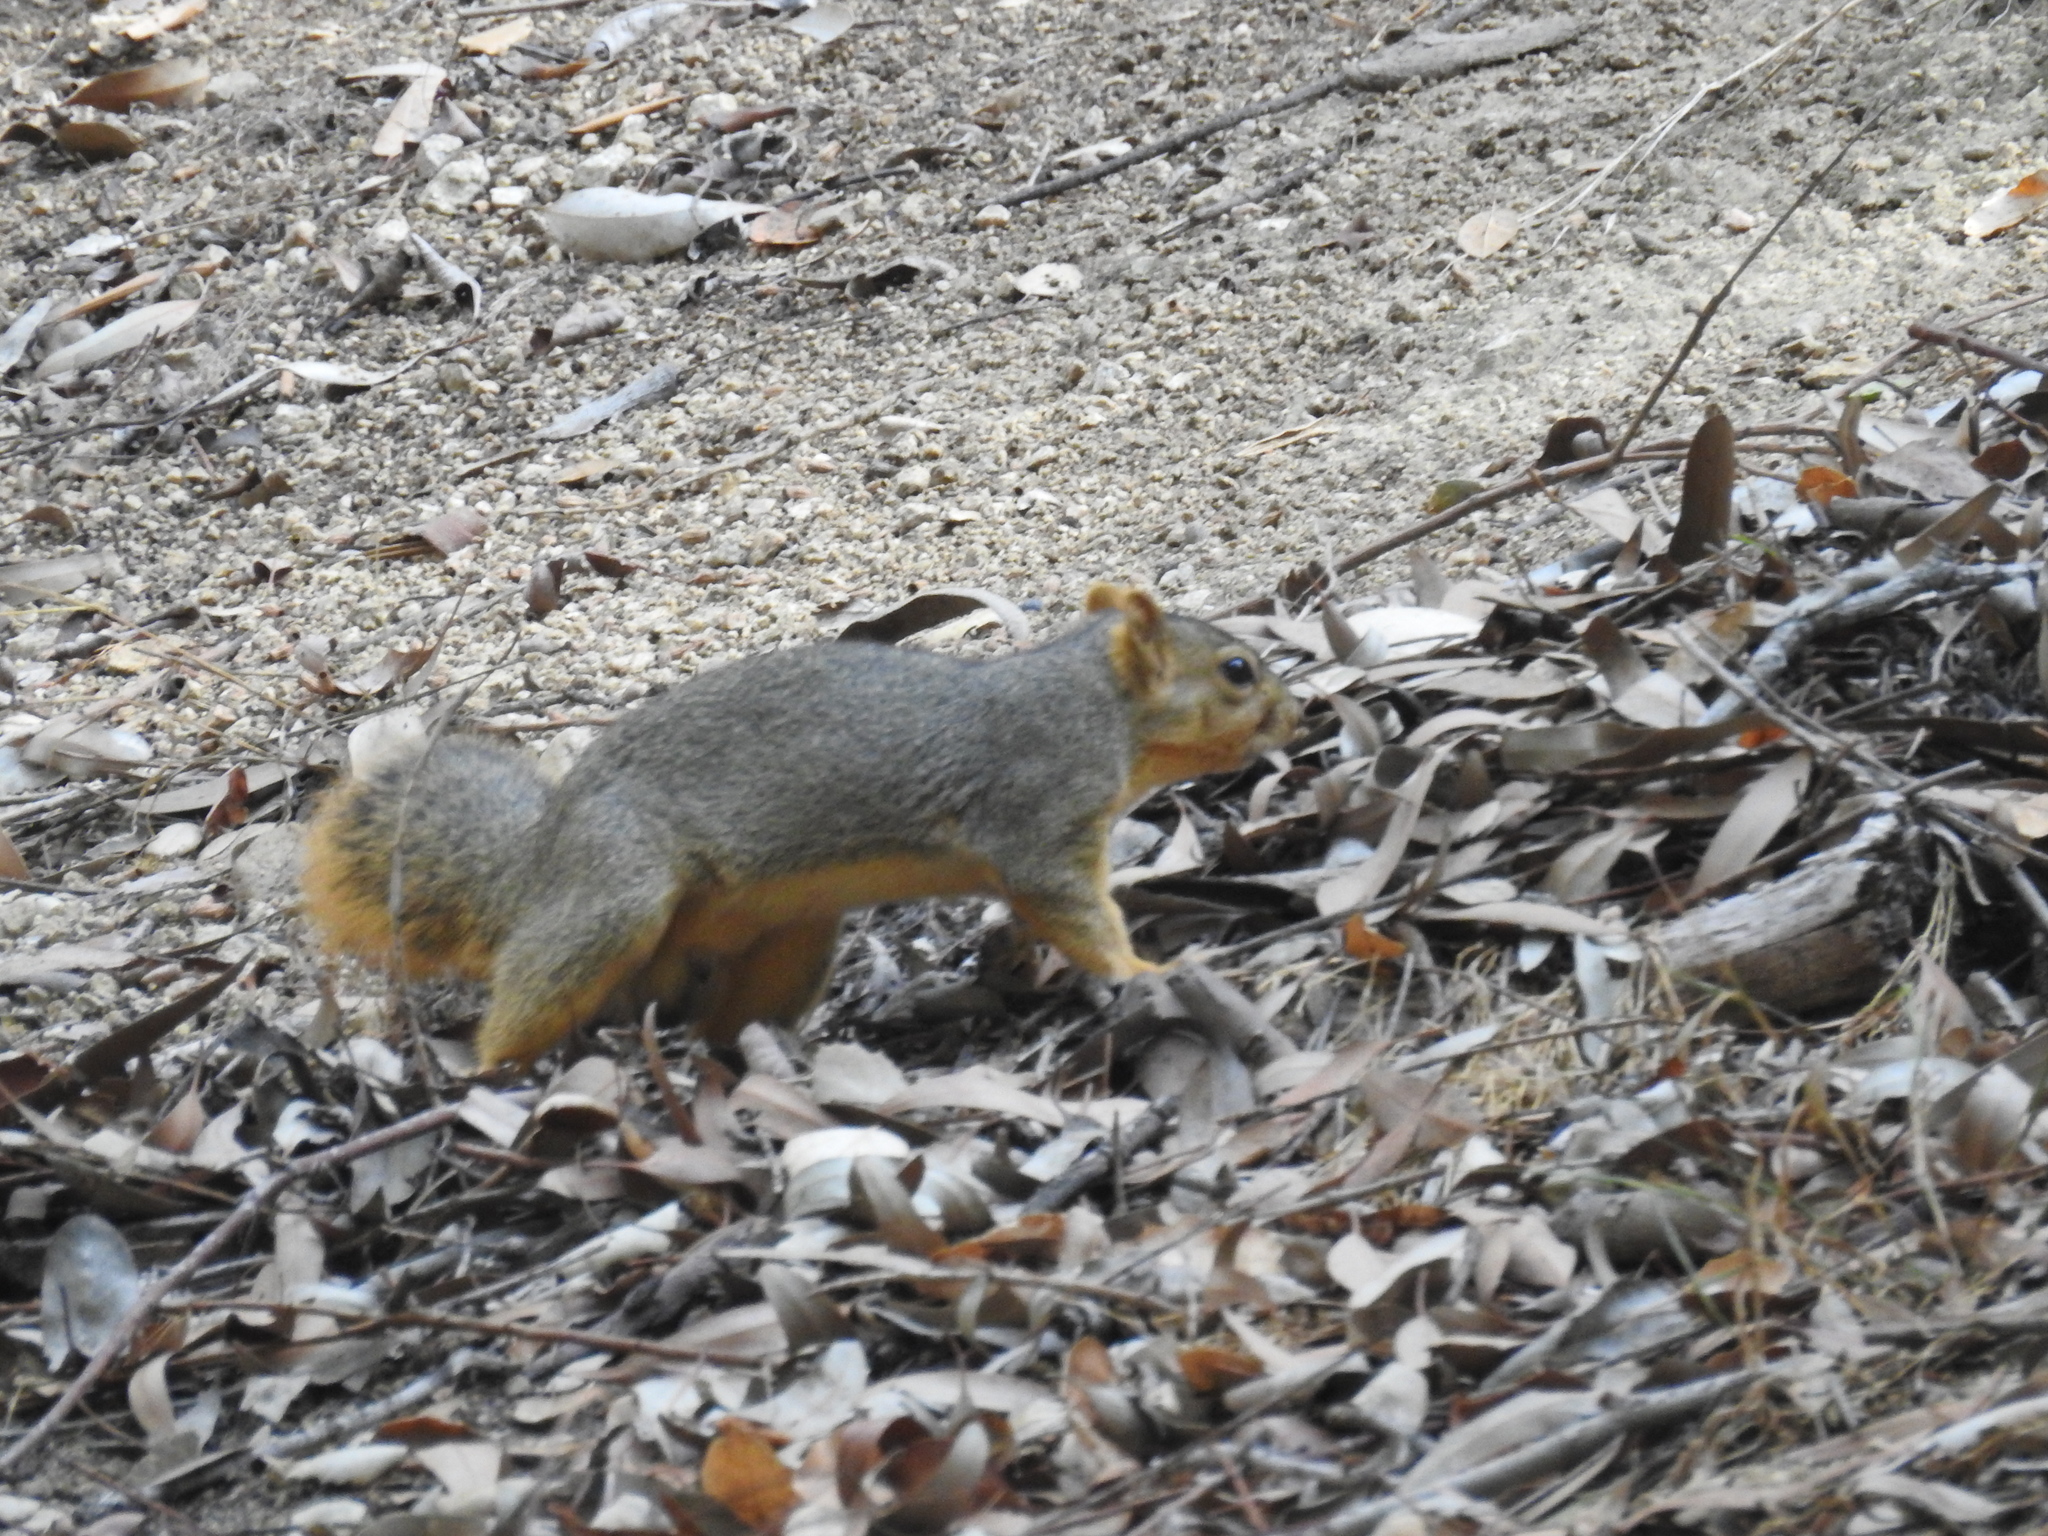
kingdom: Animalia
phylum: Chordata
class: Mammalia
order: Rodentia
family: Sciuridae
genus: Sciurus
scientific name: Sciurus niger
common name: Fox squirrel
